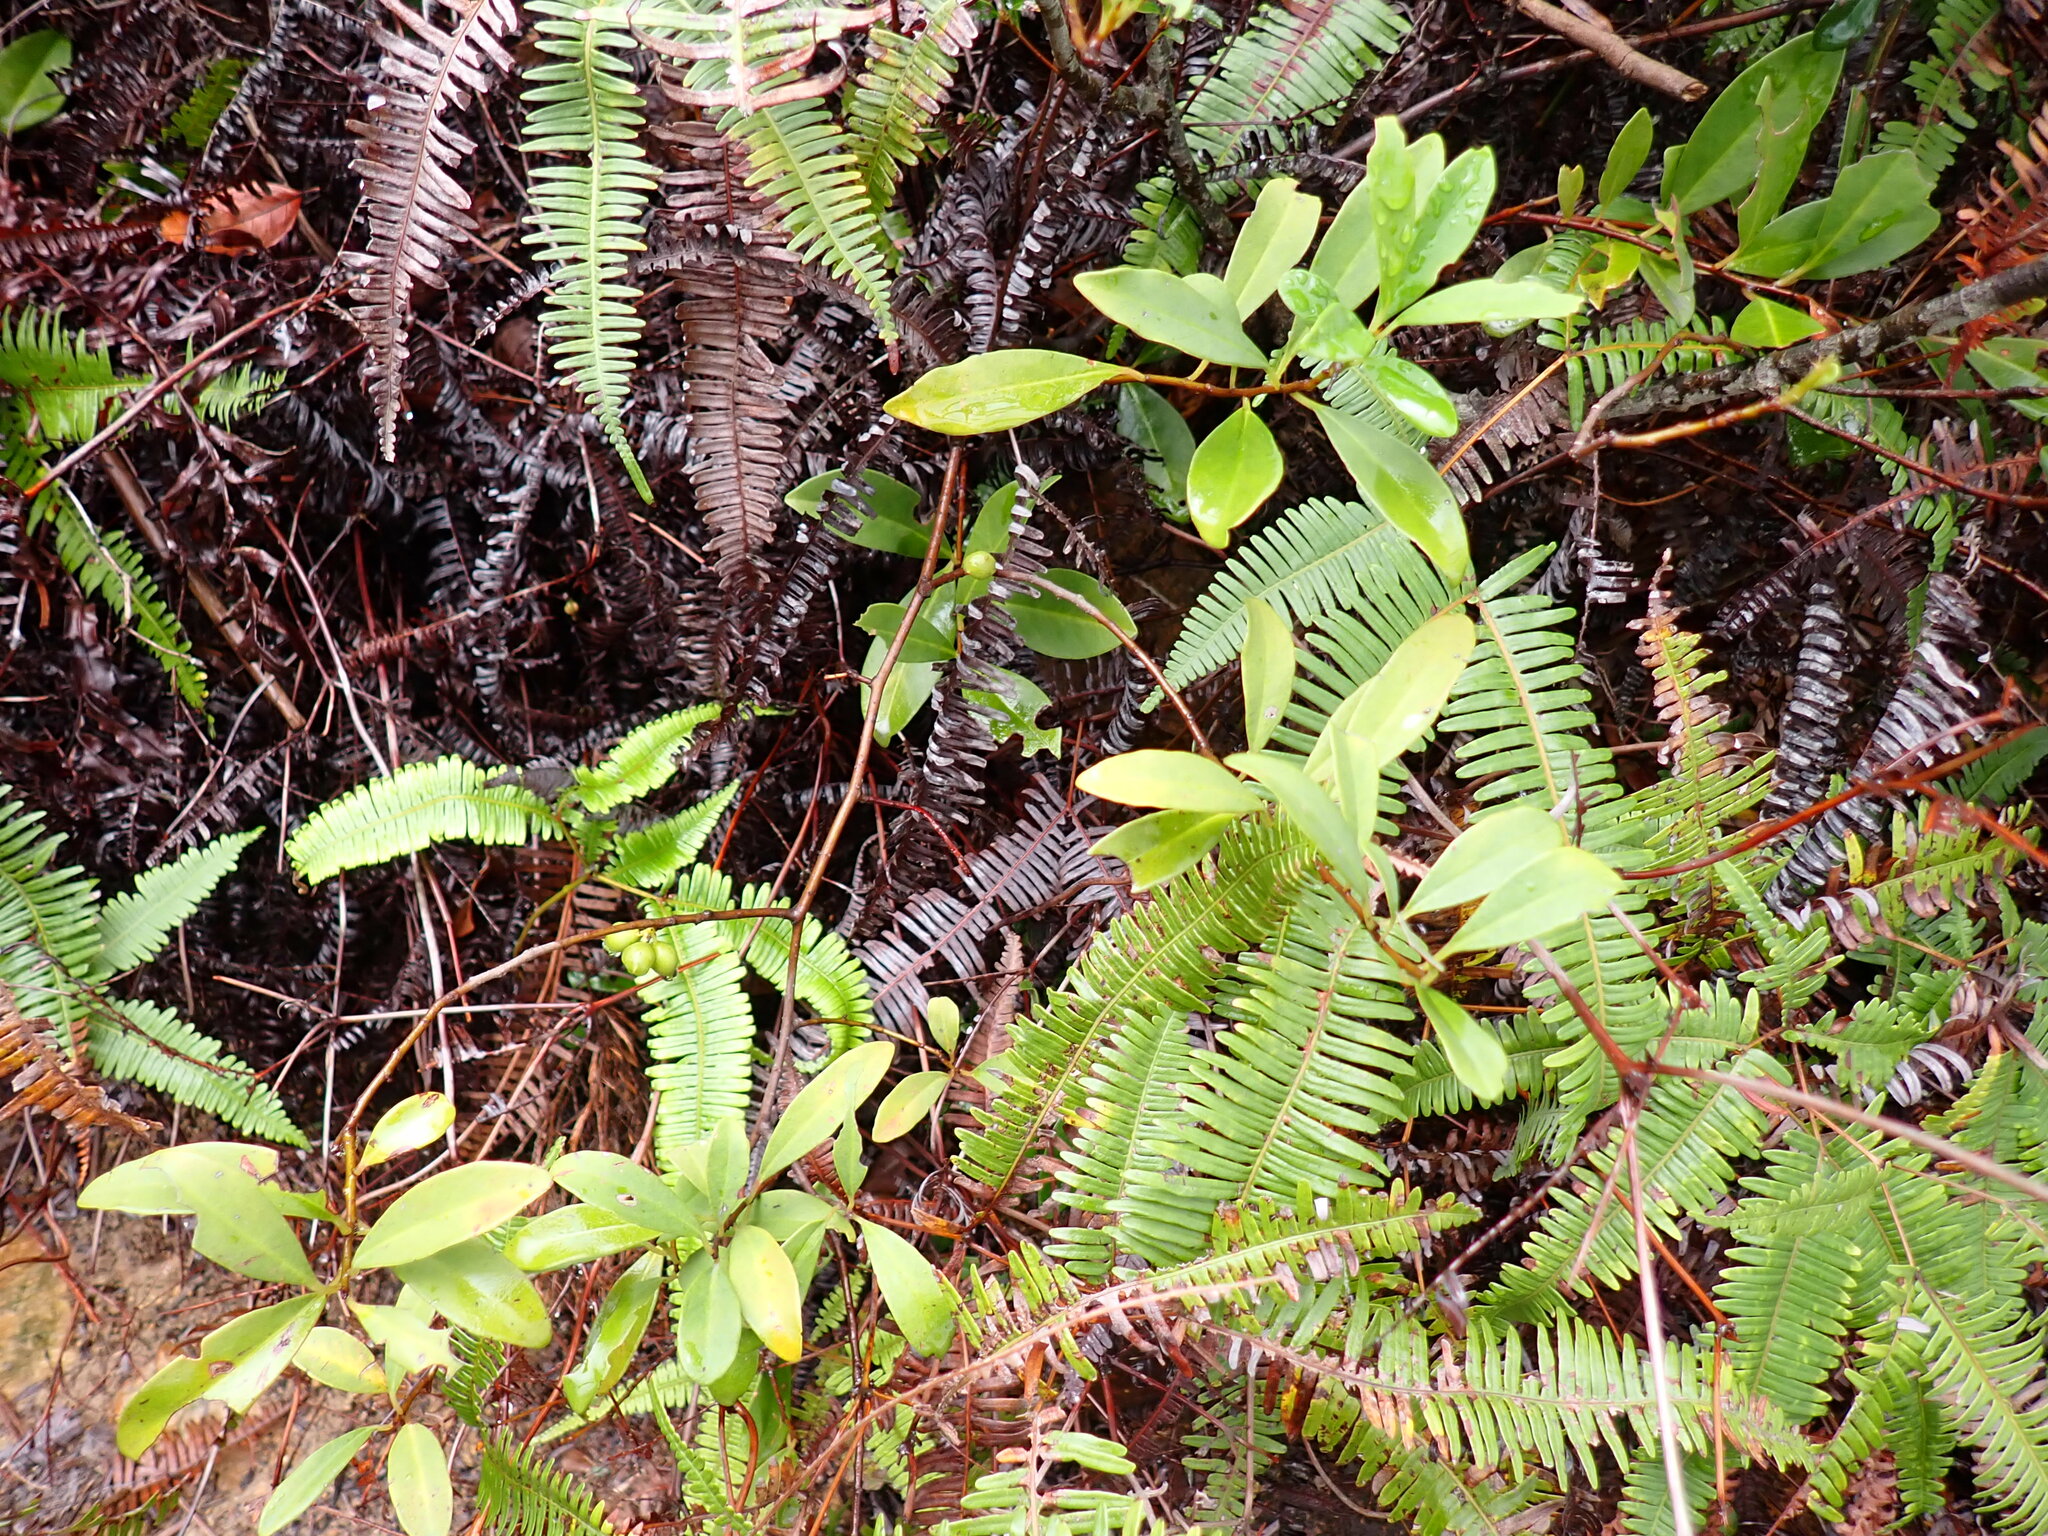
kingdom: Plantae
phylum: Tracheophyta
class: Magnoliopsida
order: Ericales
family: Primulaceae
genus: Embelia
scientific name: Embelia laeta
